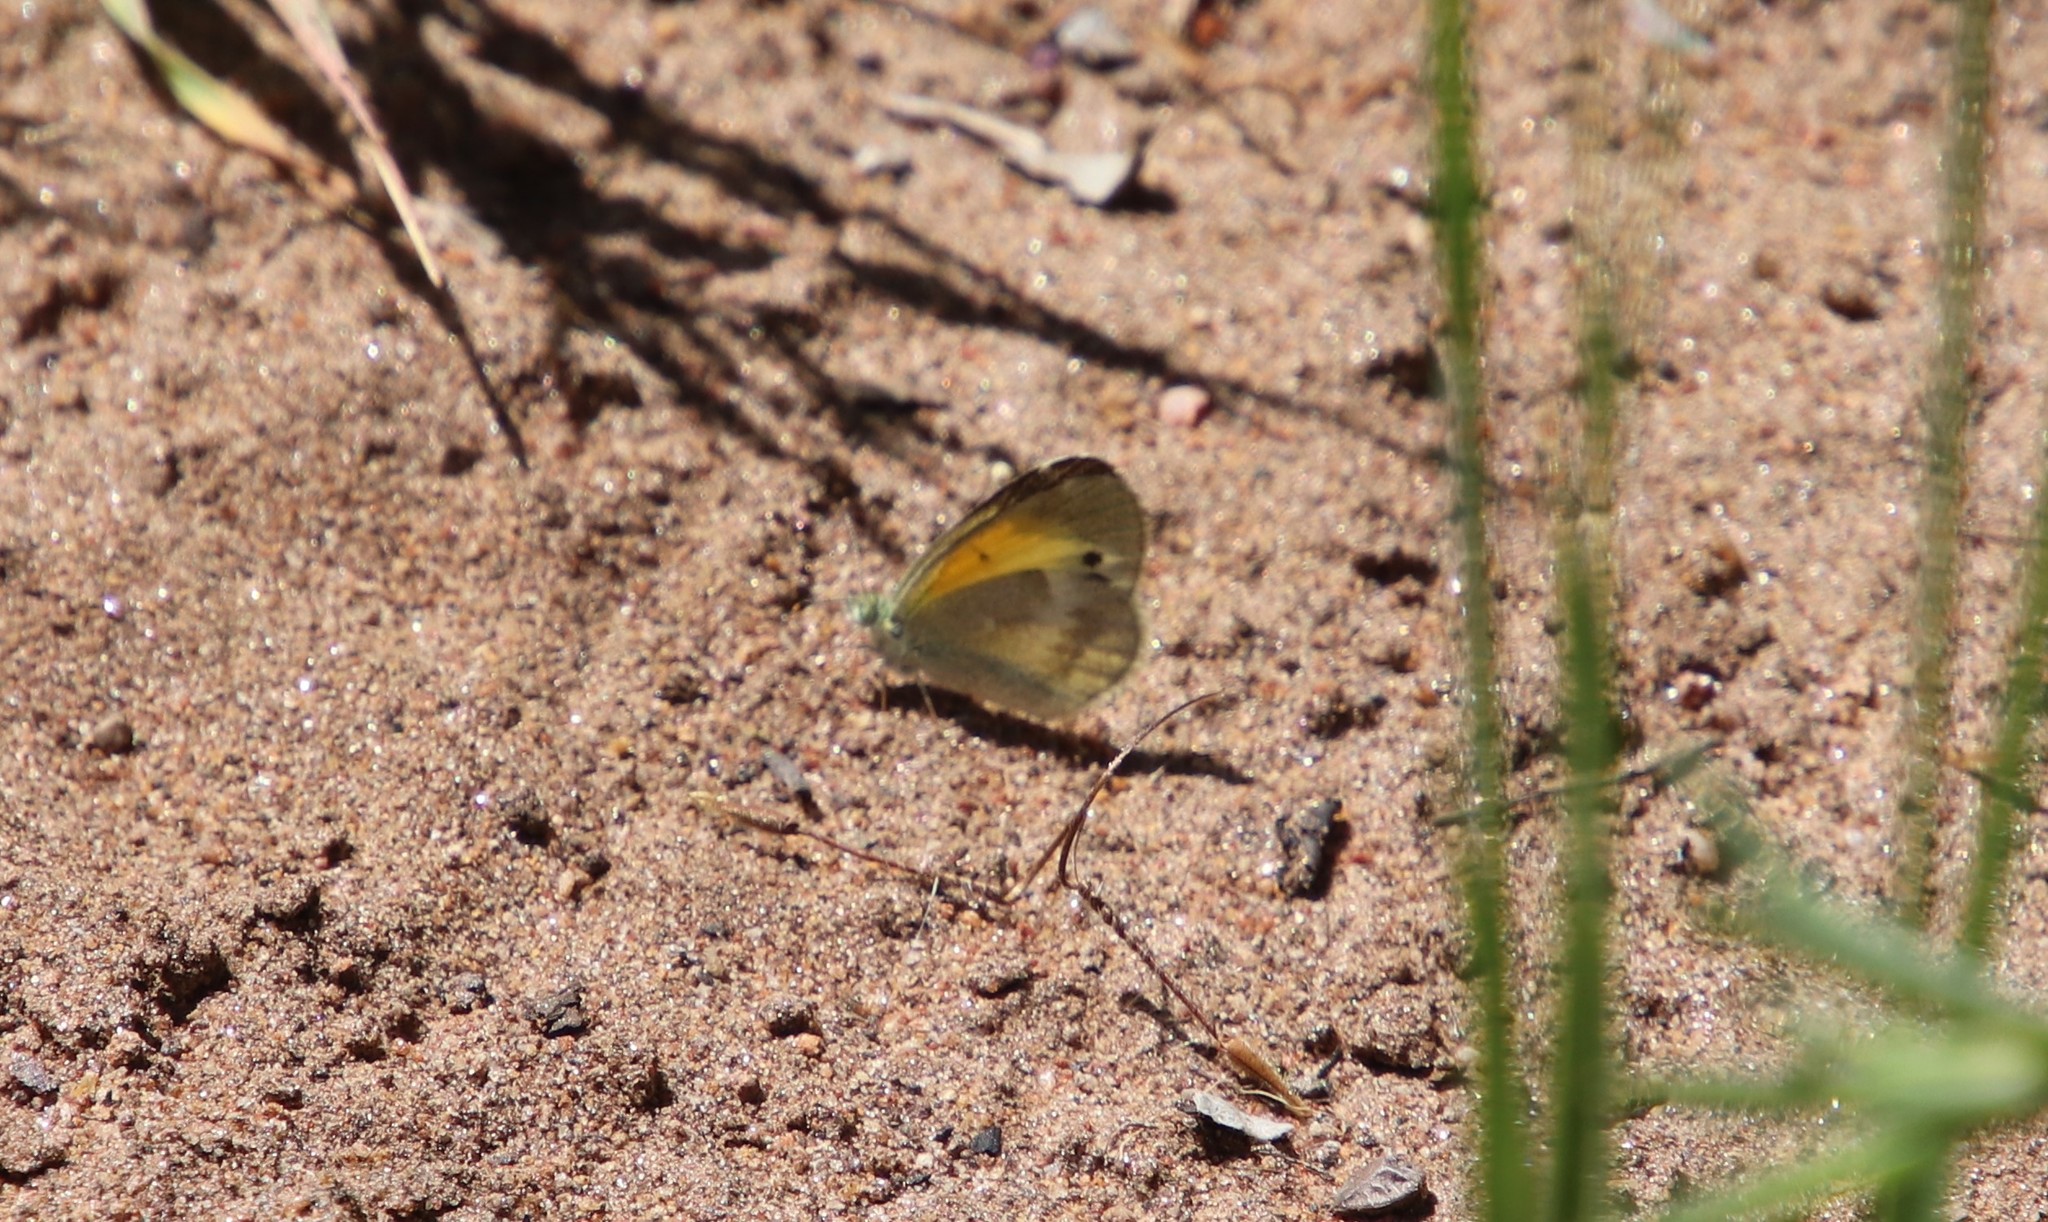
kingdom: Animalia
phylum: Arthropoda
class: Insecta
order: Lepidoptera
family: Pieridae
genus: Nathalis
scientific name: Nathalis iole
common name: Dainty sulphur
